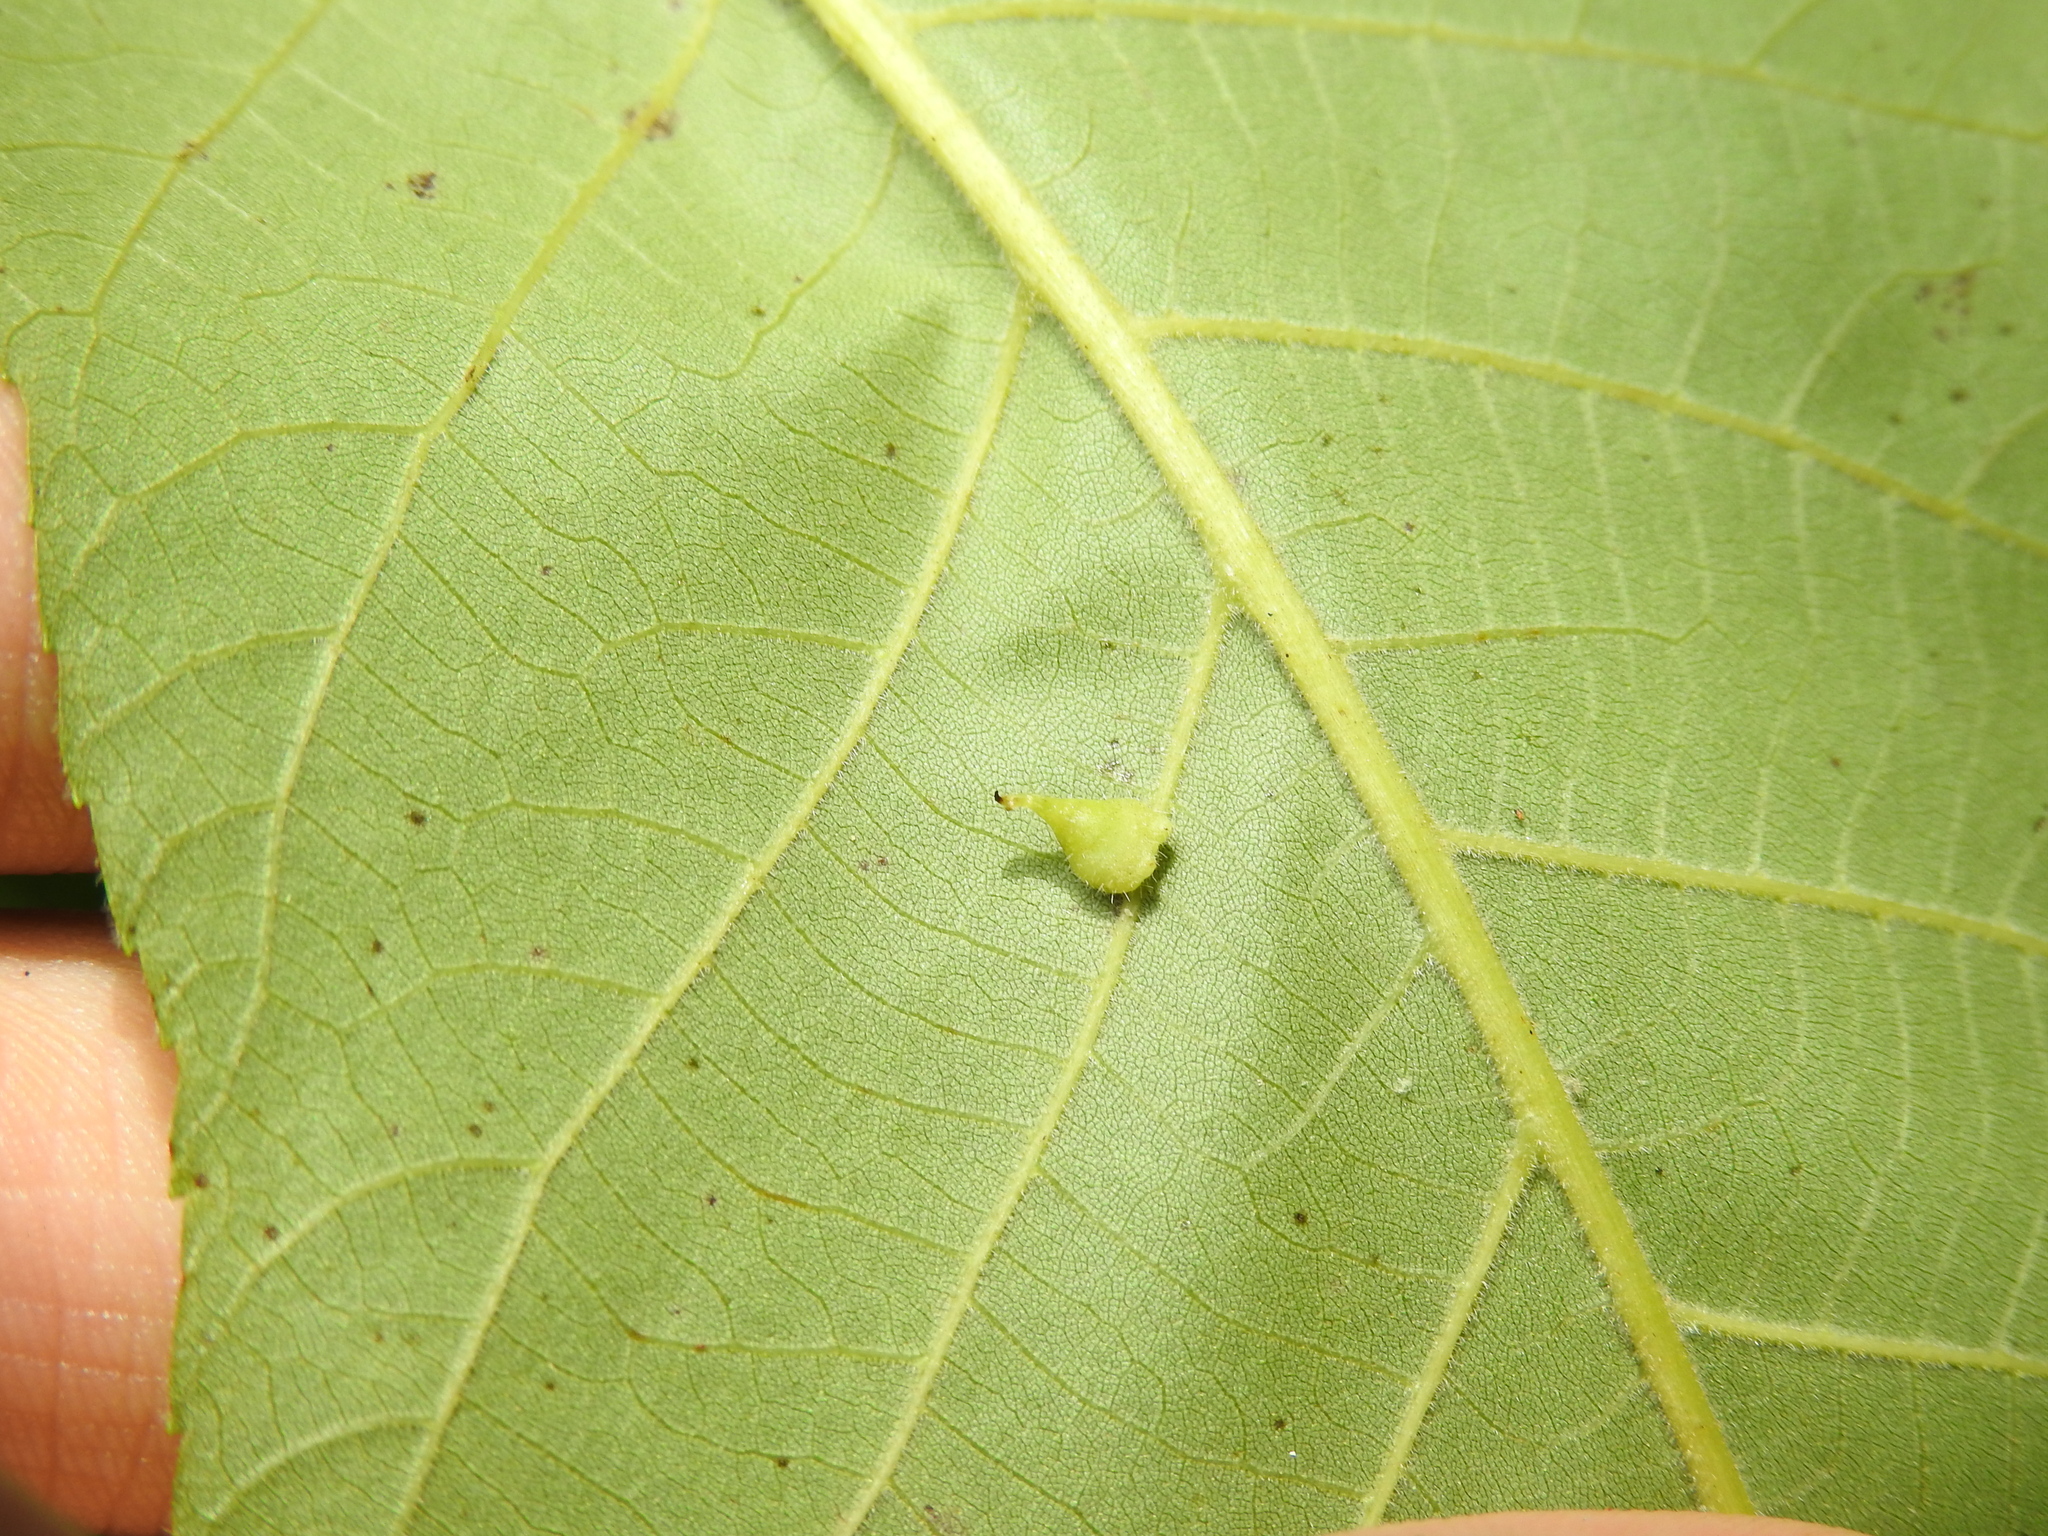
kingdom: Animalia
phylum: Arthropoda
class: Insecta
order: Diptera
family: Cecidomyiidae
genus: Caryomyia
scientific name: Caryomyia inclinata
